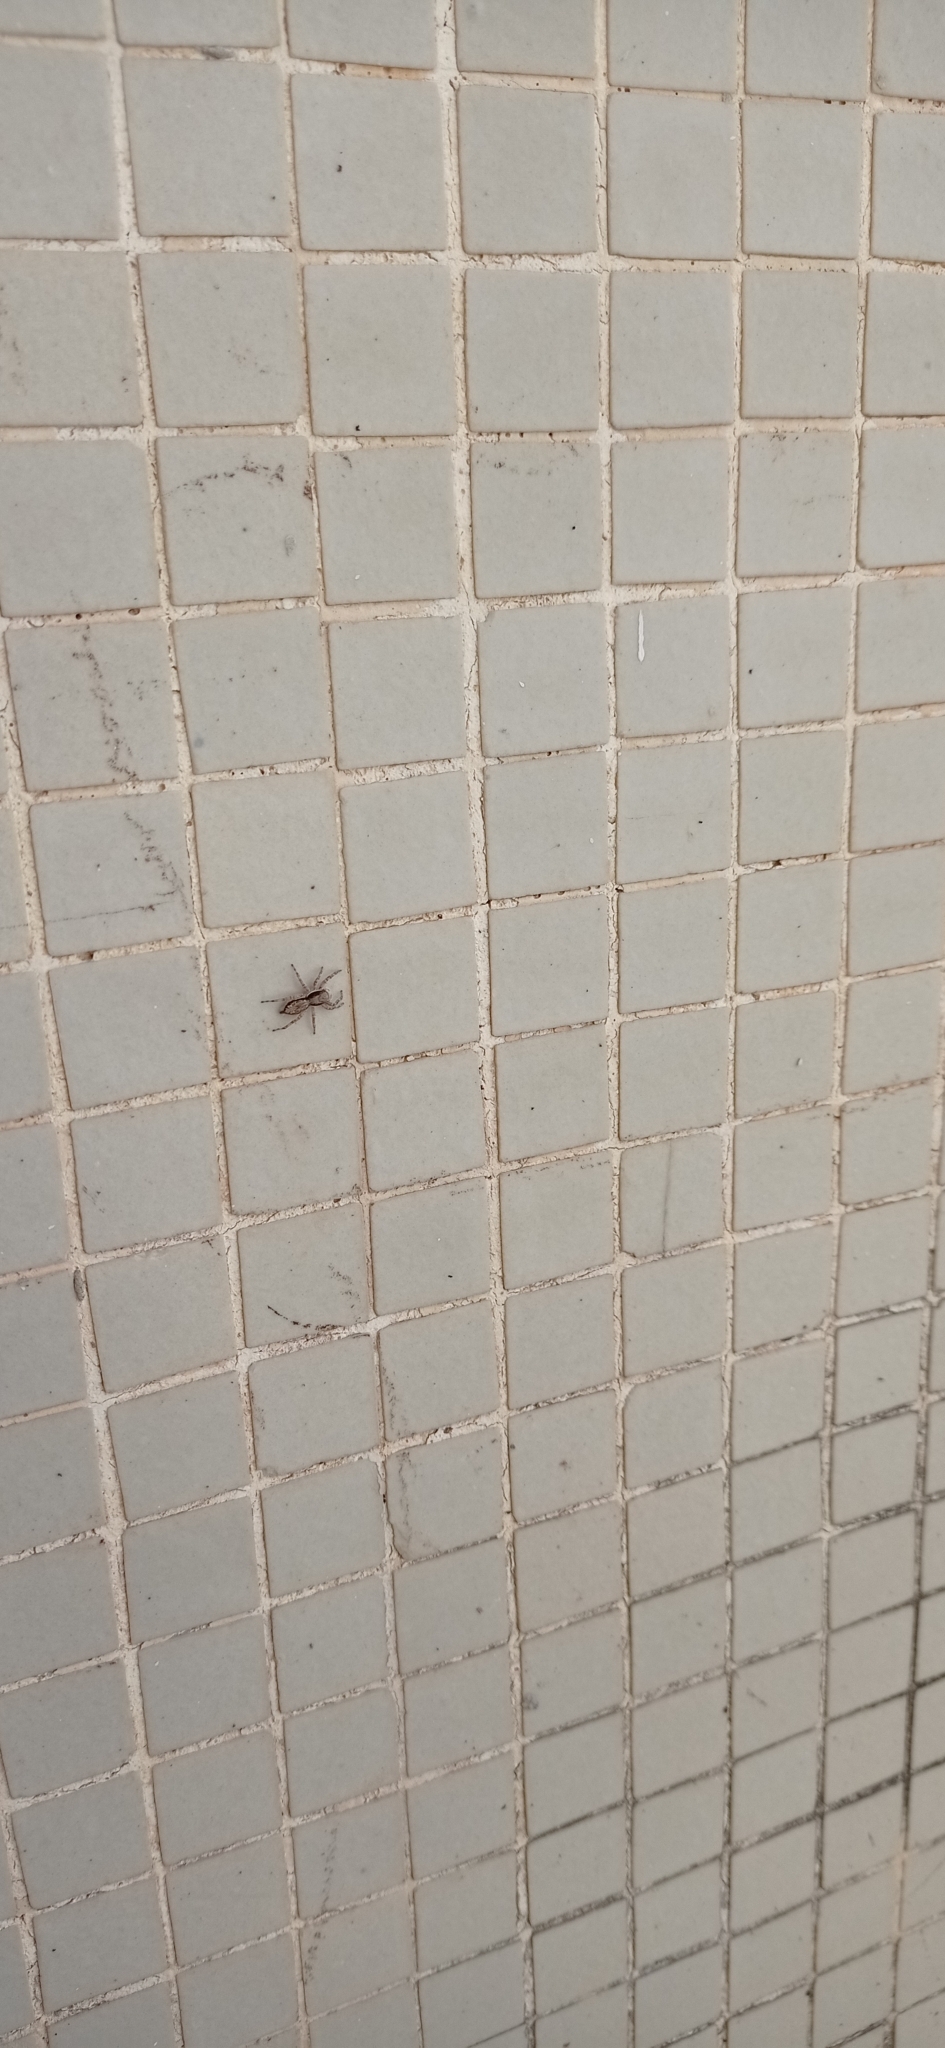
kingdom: Animalia
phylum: Arthropoda
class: Arachnida
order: Araneae
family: Salticidae
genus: Menemerus
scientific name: Menemerus bivittatus
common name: Gray wall jumper
